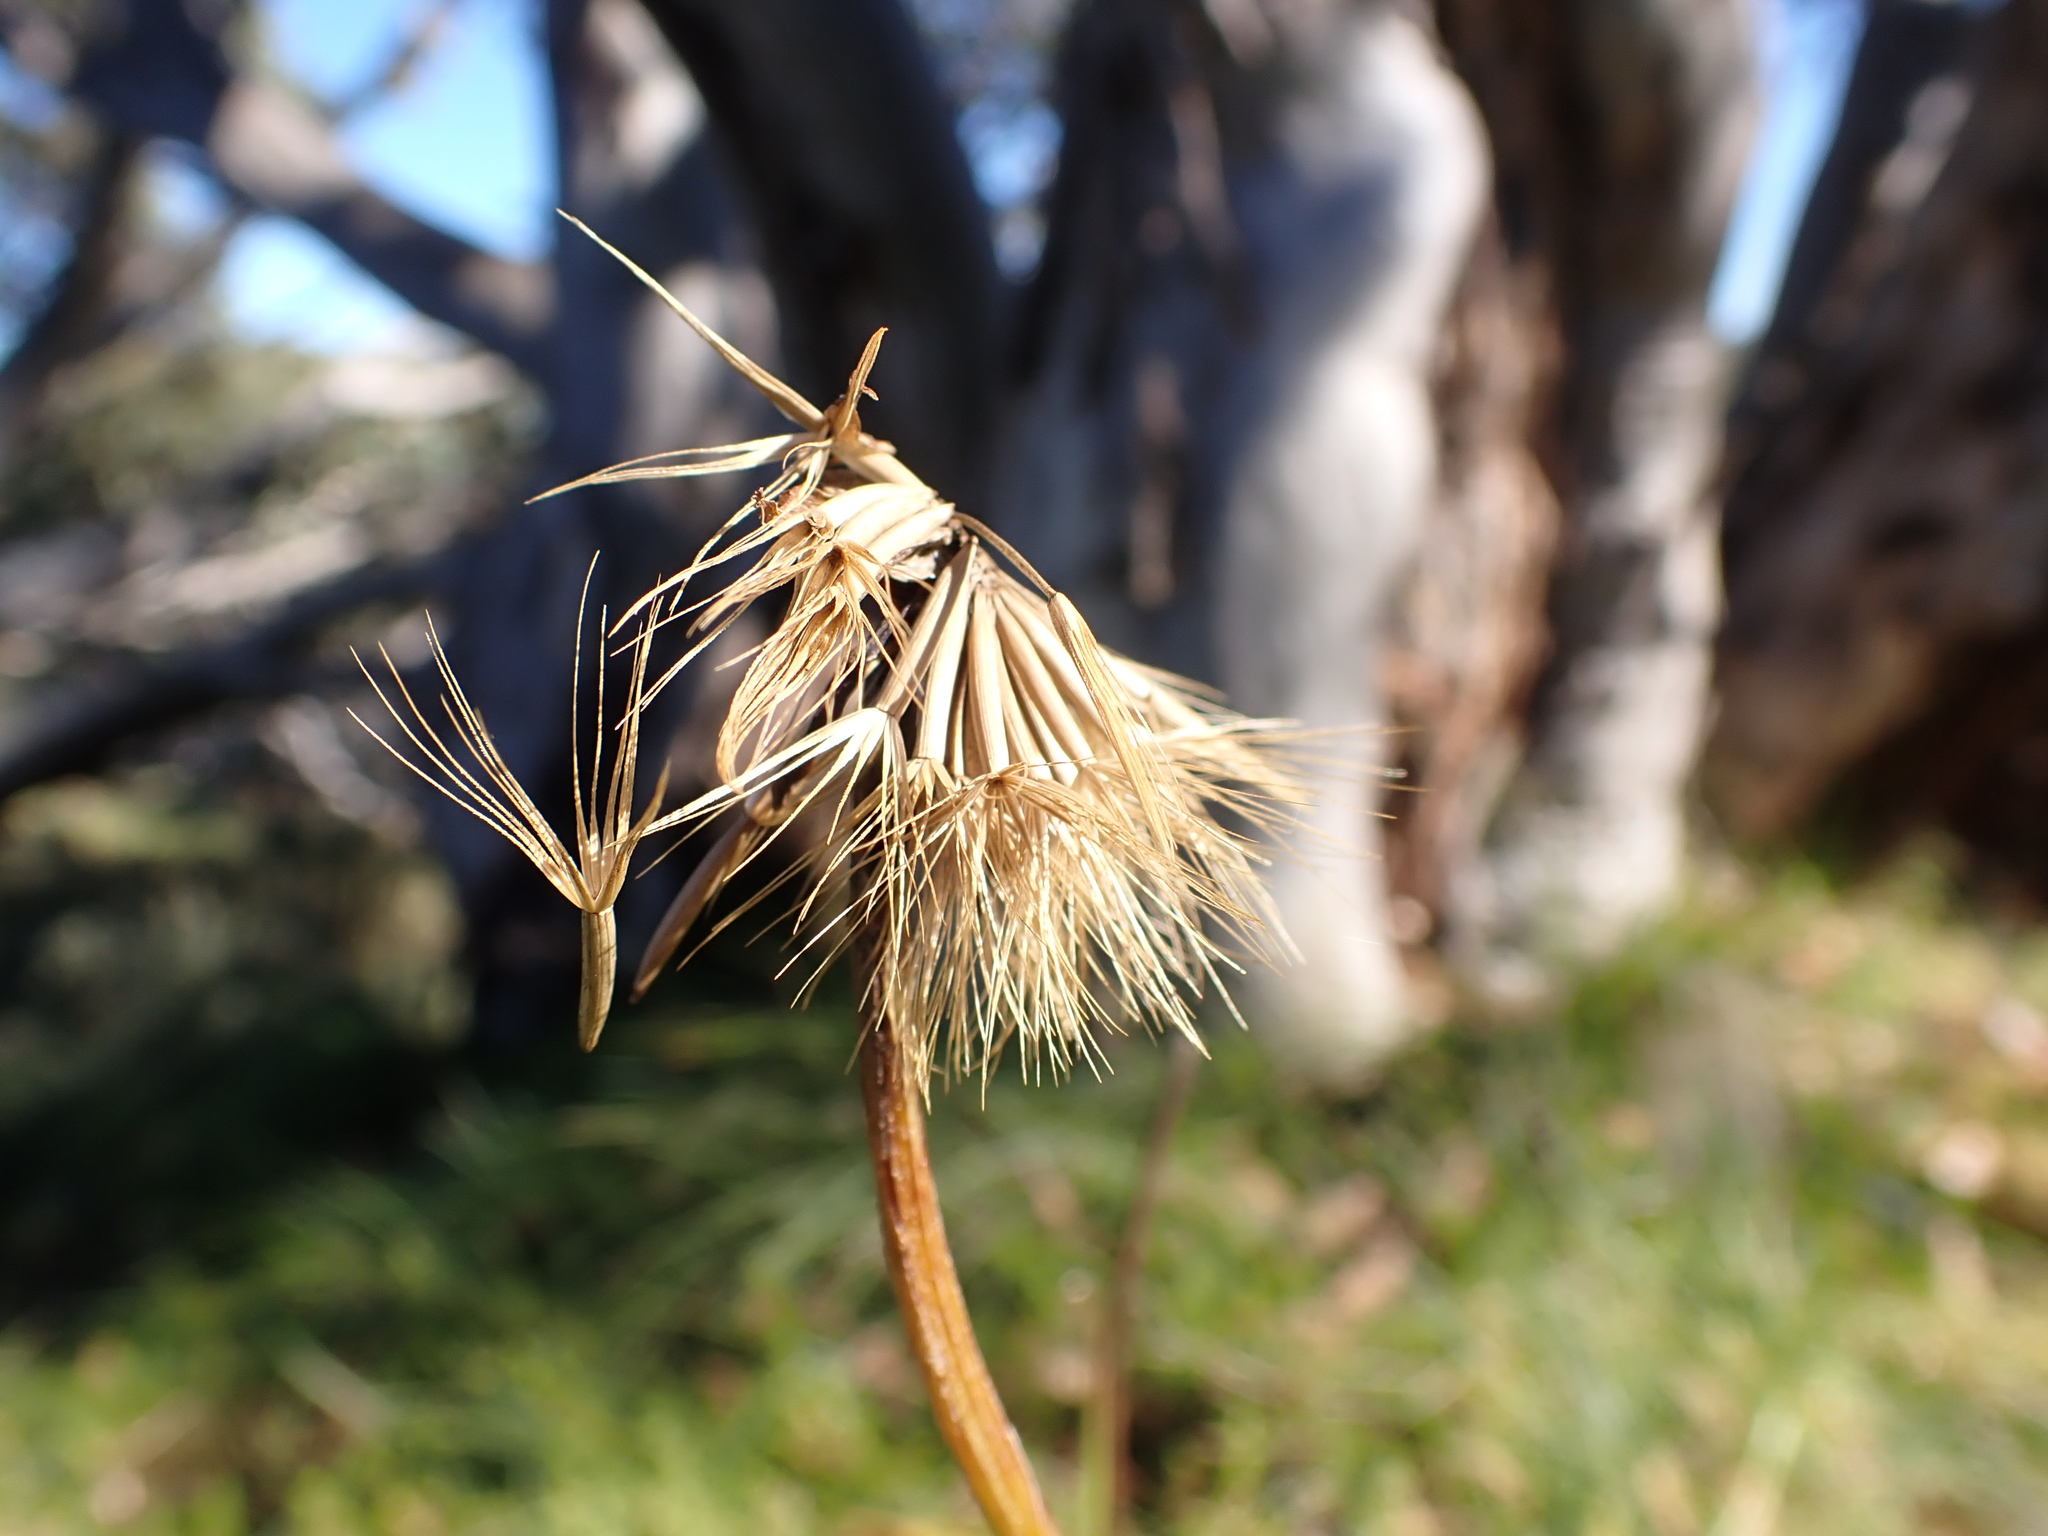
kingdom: Plantae
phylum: Tracheophyta
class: Magnoliopsida
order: Asterales
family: Asteraceae
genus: Microseris
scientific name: Microseris lanceolata
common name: Yam daisy
